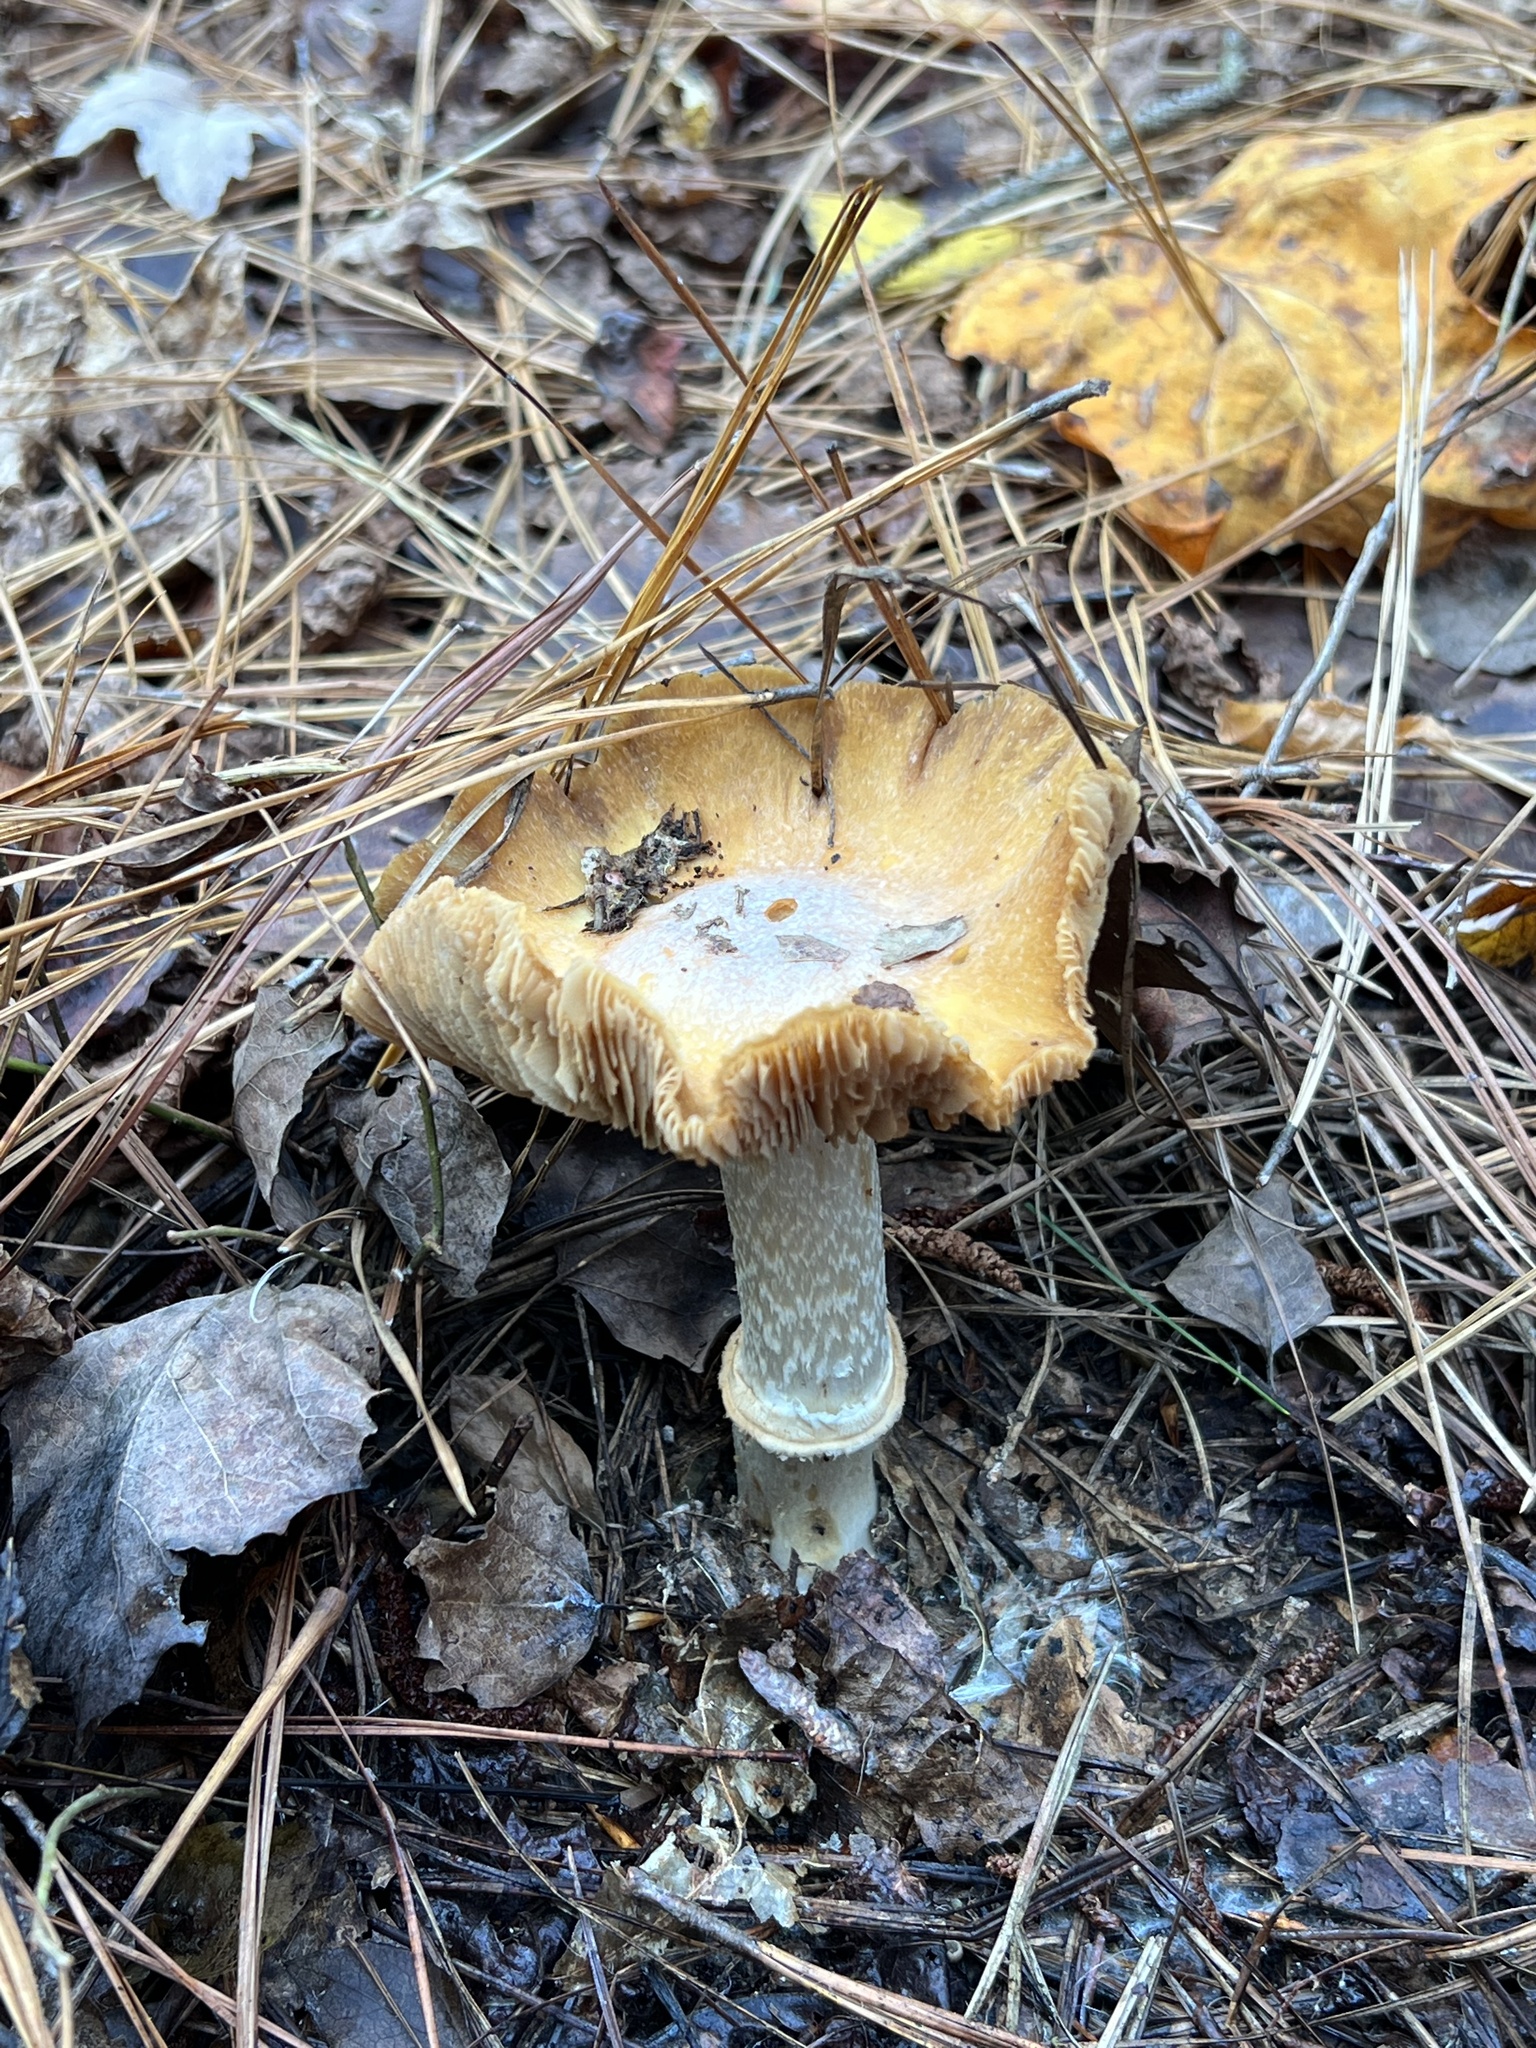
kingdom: Fungi
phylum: Basidiomycota
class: Agaricomycetes
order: Agaricales
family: Cortinariaceae
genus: Cortinarius
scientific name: Cortinarius caperatus
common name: The gypsy
